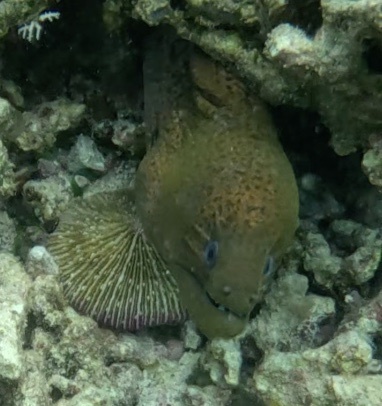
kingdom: Animalia
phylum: Chordata
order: Anguilliformes
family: Muraenidae
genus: Gymnothorax
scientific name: Gymnothorax javanicus
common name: Giant moray
